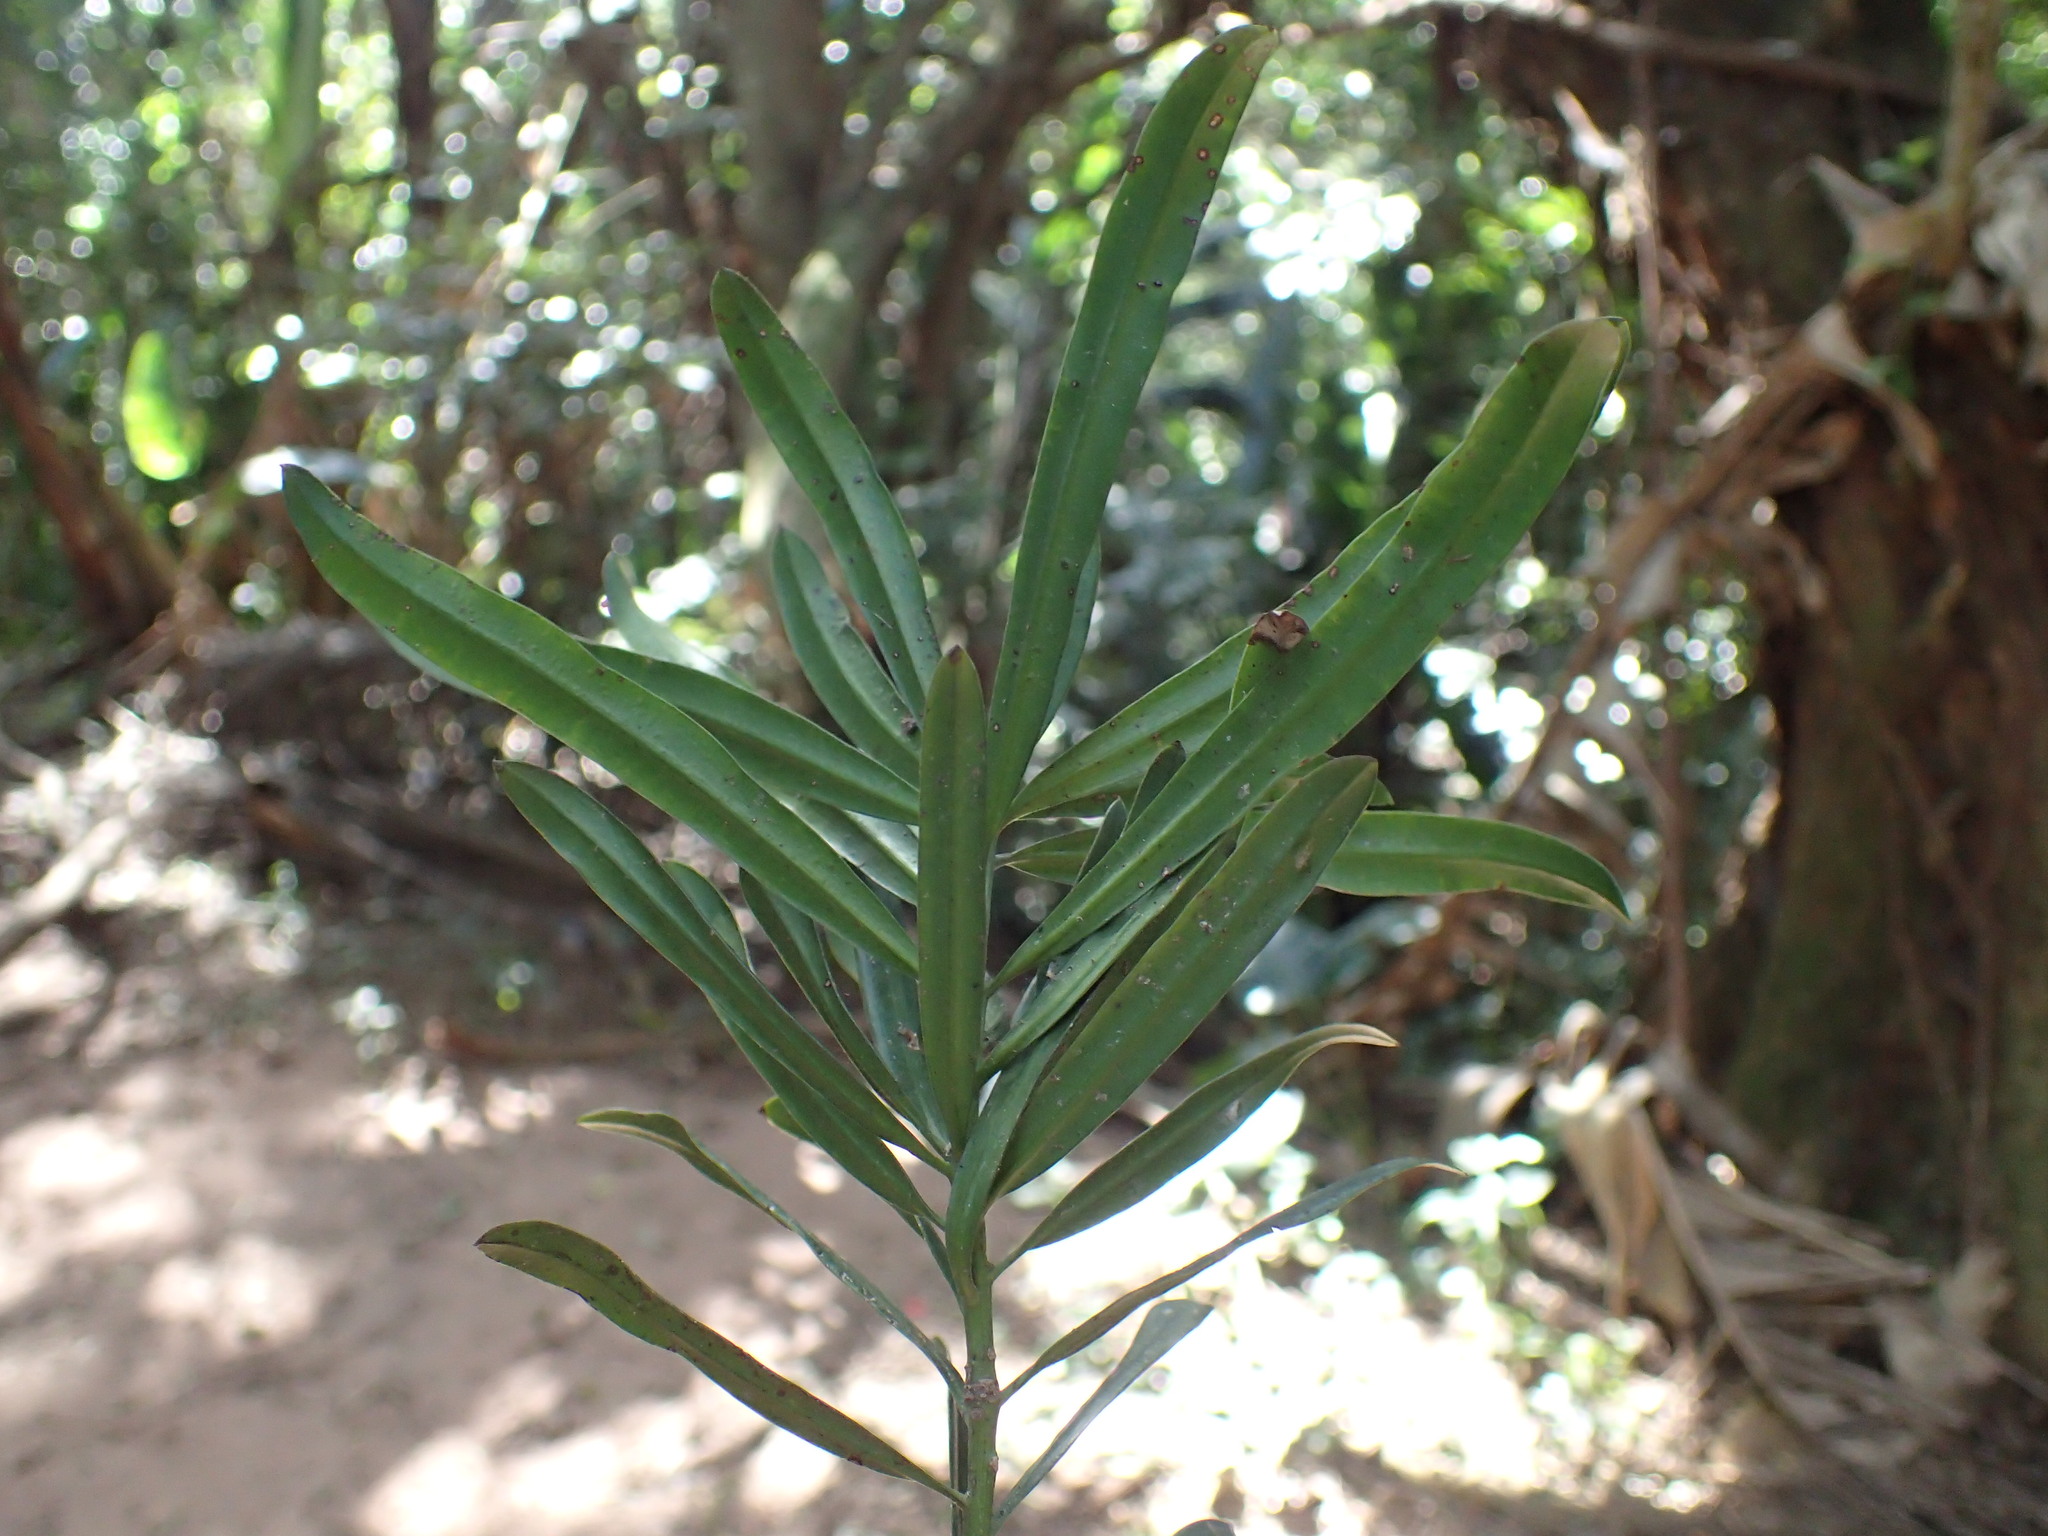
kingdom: Plantae
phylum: Tracheophyta
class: Pinopsida
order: Pinales
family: Podocarpaceae
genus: Podocarpus
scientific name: Podocarpus latifolius
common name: True yellowwood
